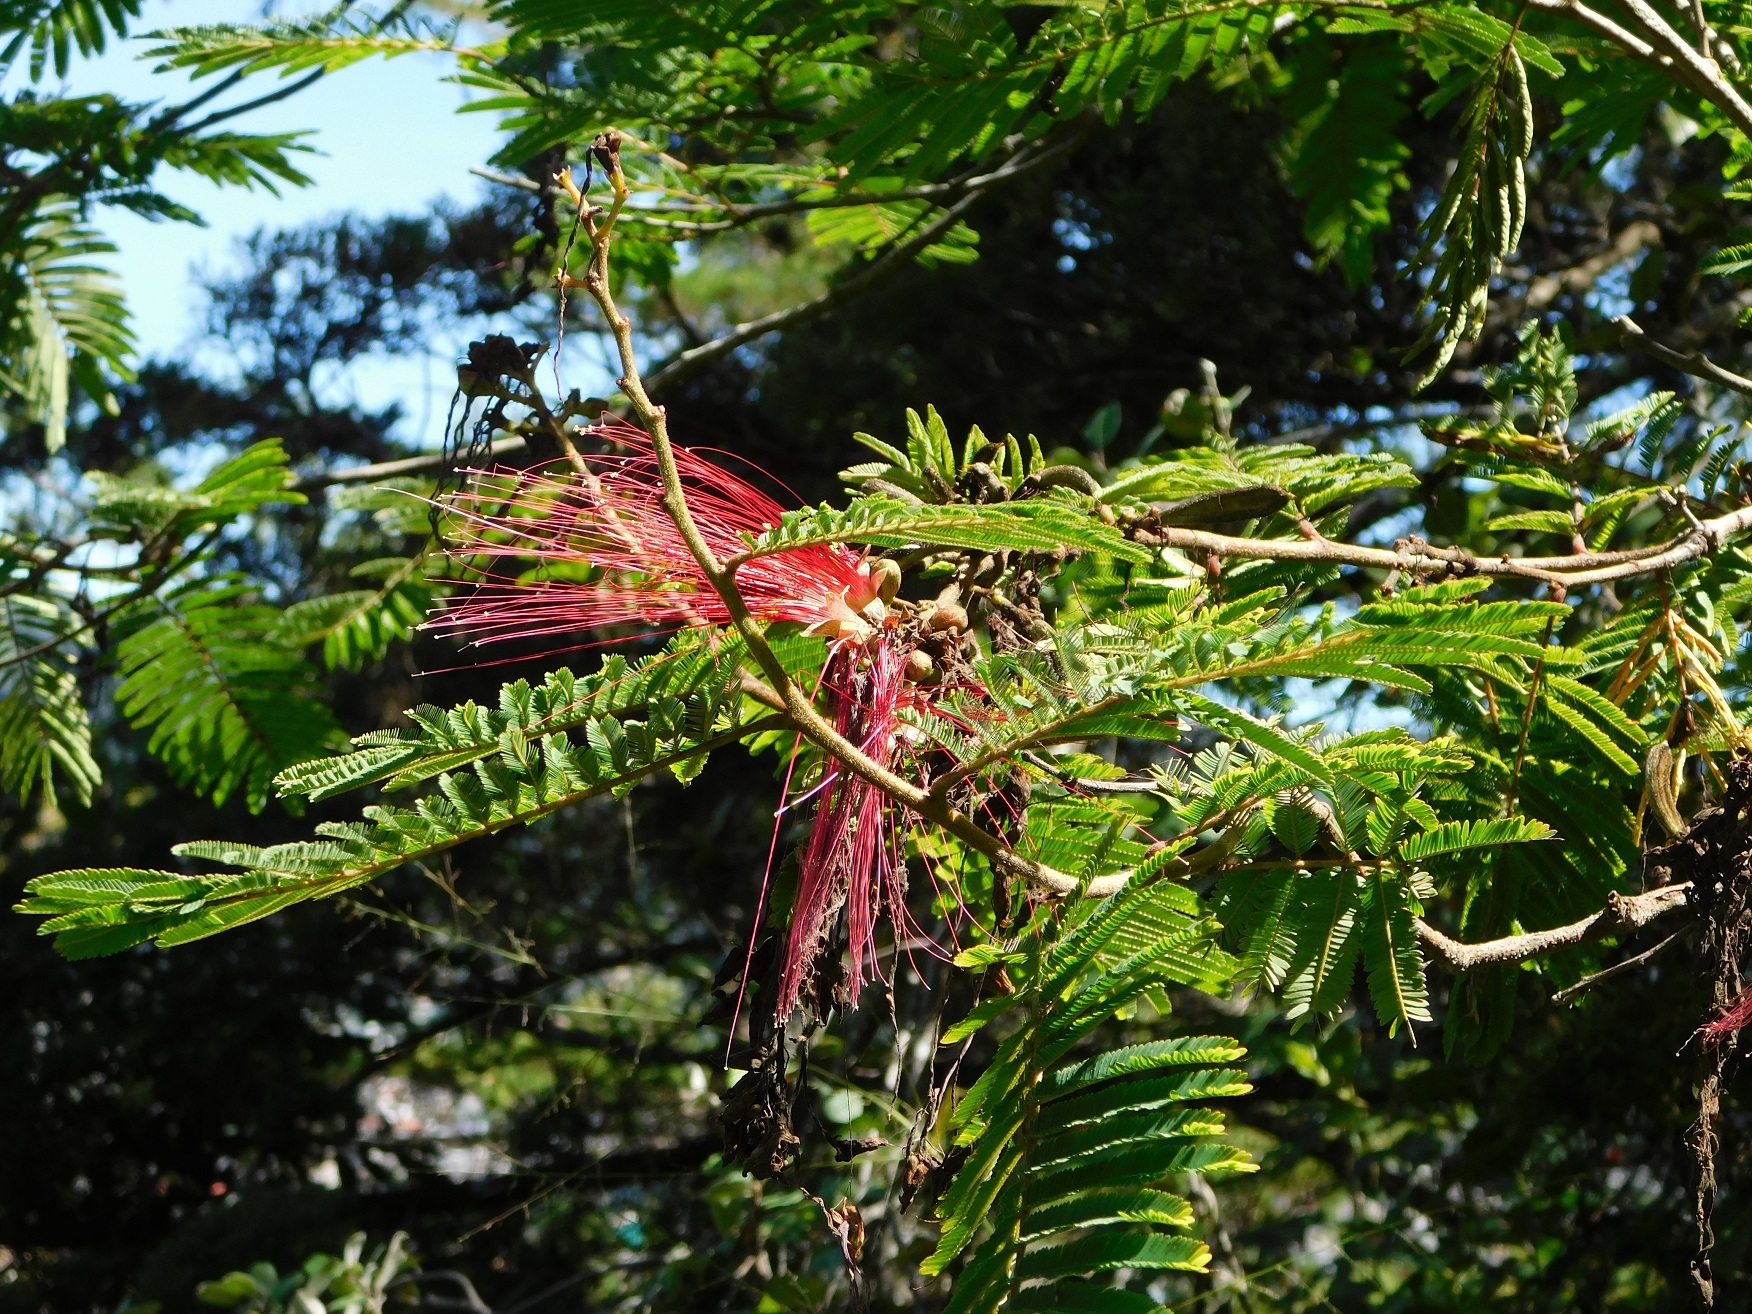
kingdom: Plantae
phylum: Tracheophyta
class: Magnoliopsida
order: Fabales
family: Fabaceae
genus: Calliandra
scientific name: Calliandra houstoniana
